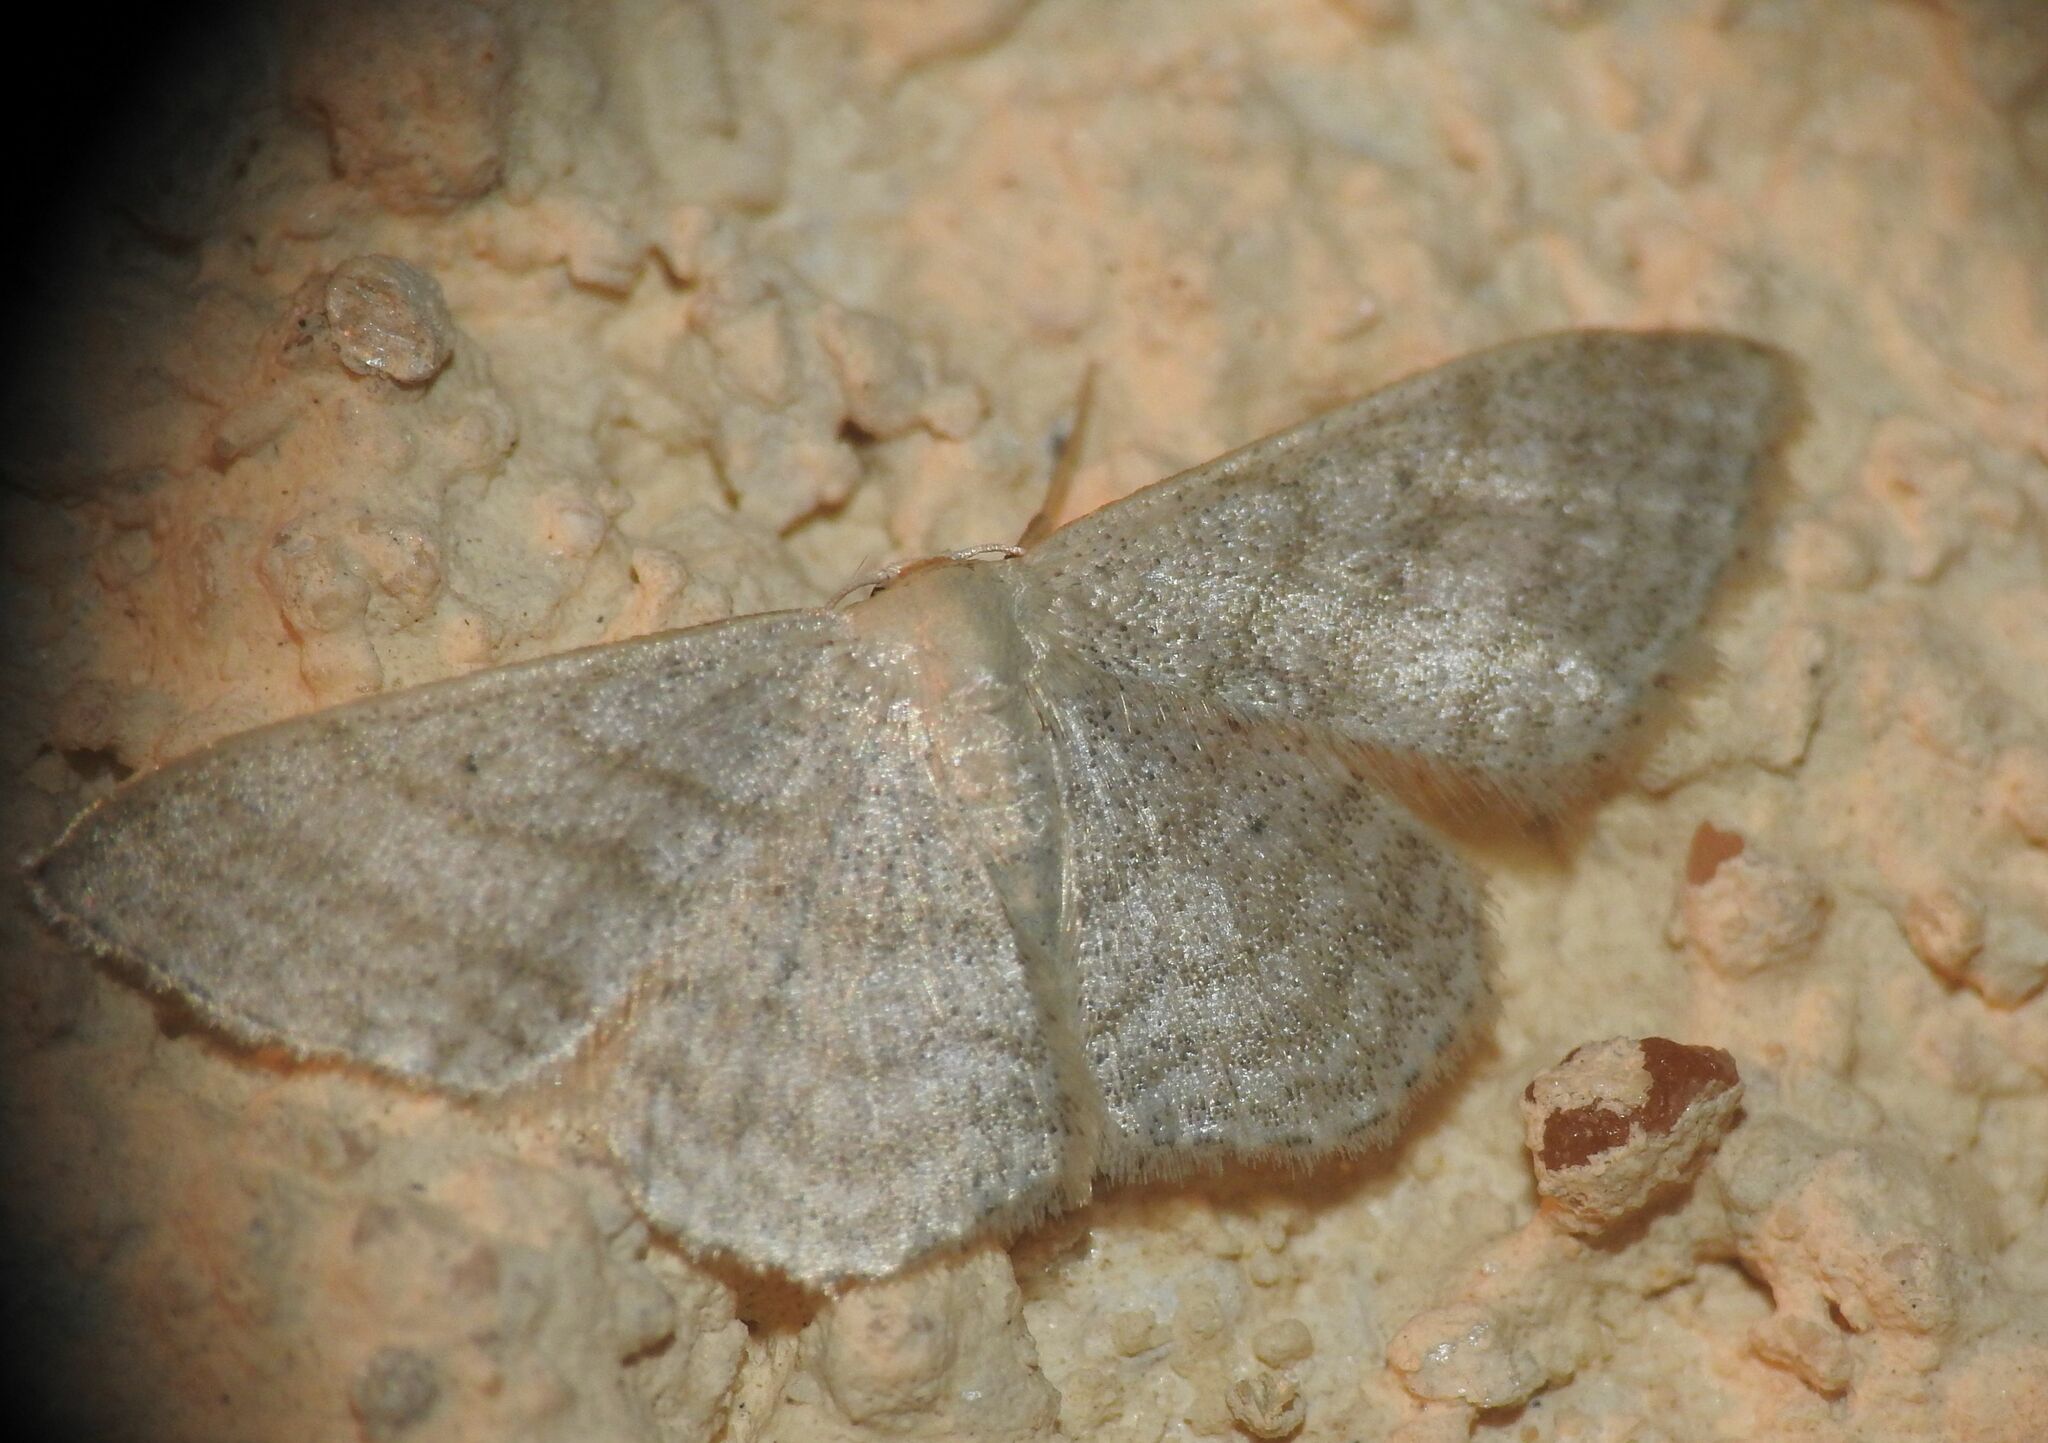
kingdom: Animalia
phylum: Arthropoda
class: Insecta
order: Lepidoptera
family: Geometridae
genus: Idaea
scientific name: Idaea subsericeata
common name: Satin wave
